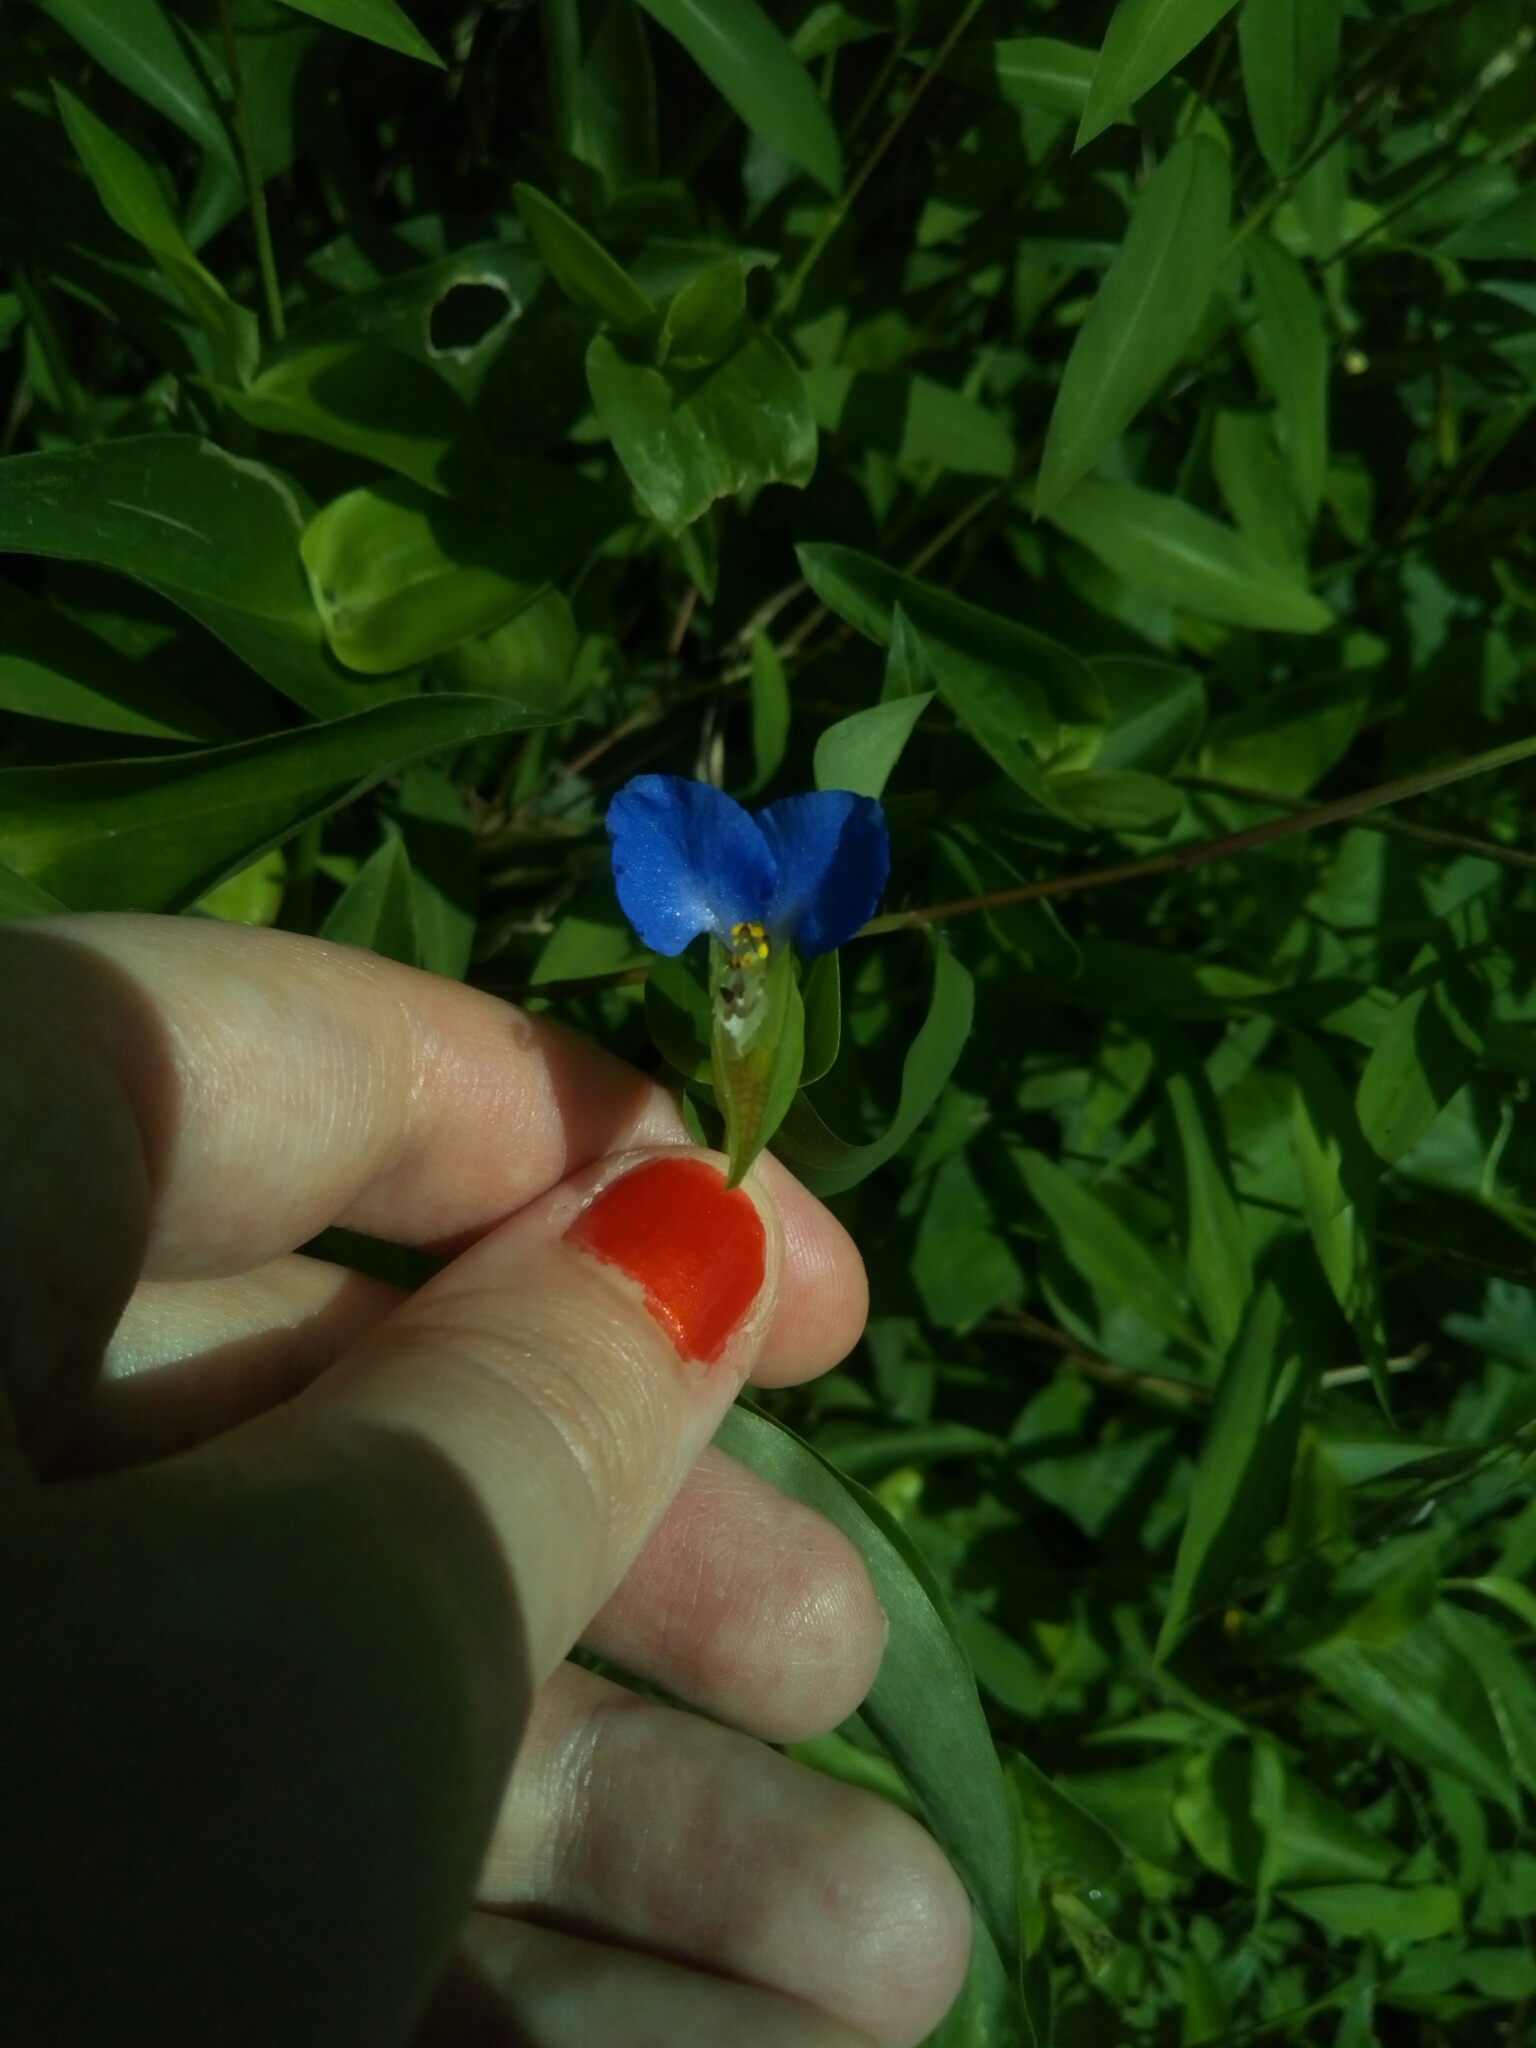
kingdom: Plantae
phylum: Tracheophyta
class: Liliopsida
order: Commelinales
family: Commelinaceae
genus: Commelina
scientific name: Commelina communis
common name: Asiatic dayflower
